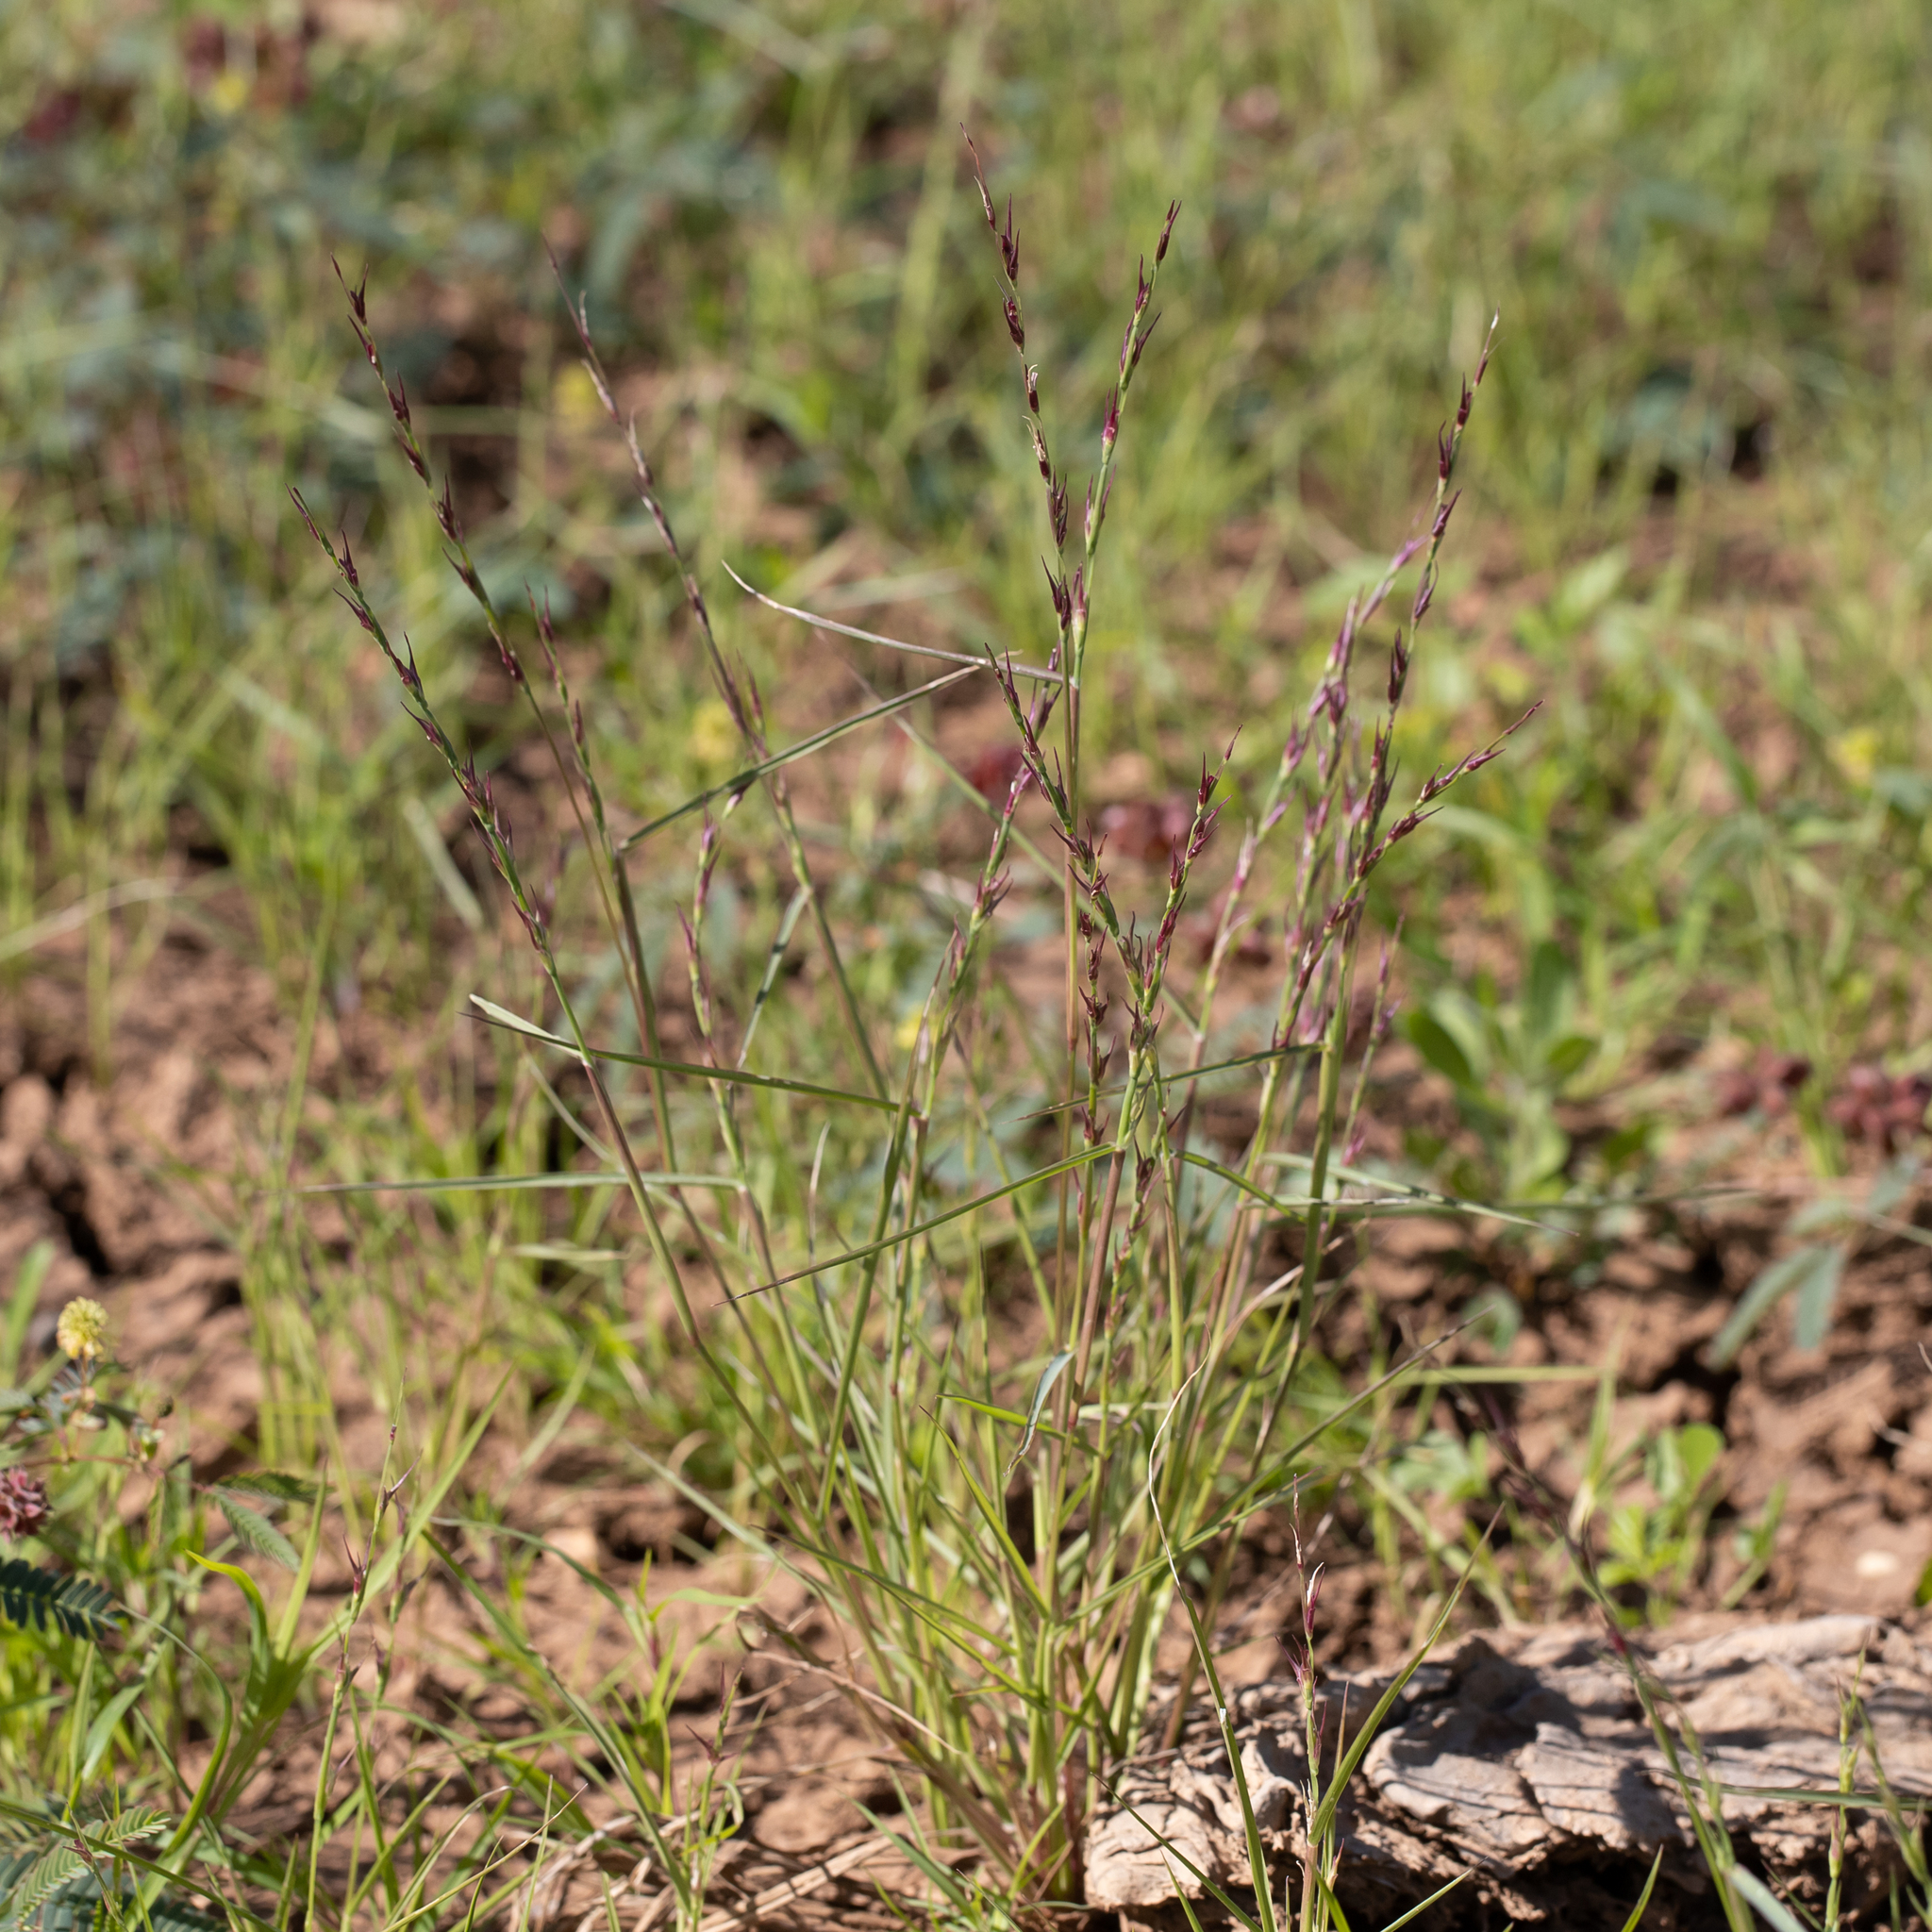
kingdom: Plantae
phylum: Tracheophyta
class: Liliopsida
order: Poales
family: Poaceae
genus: Uranthoecium
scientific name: Uranthoecium truncatum
